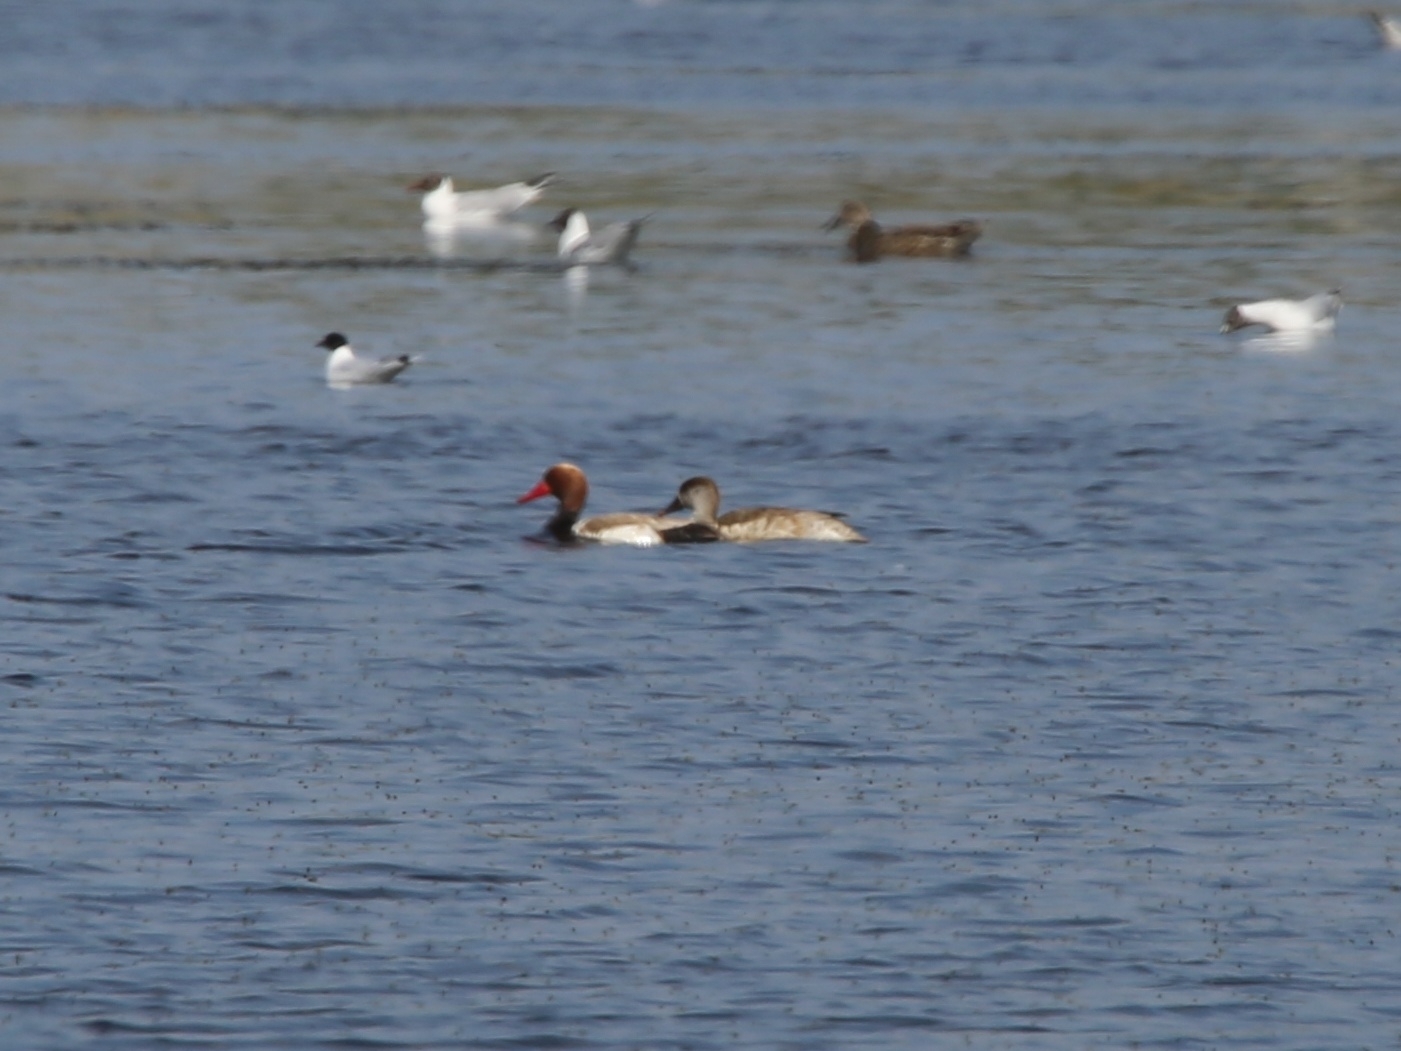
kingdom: Animalia
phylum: Chordata
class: Aves
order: Anseriformes
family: Anatidae
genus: Netta
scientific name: Netta rufina
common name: Red-crested pochard
